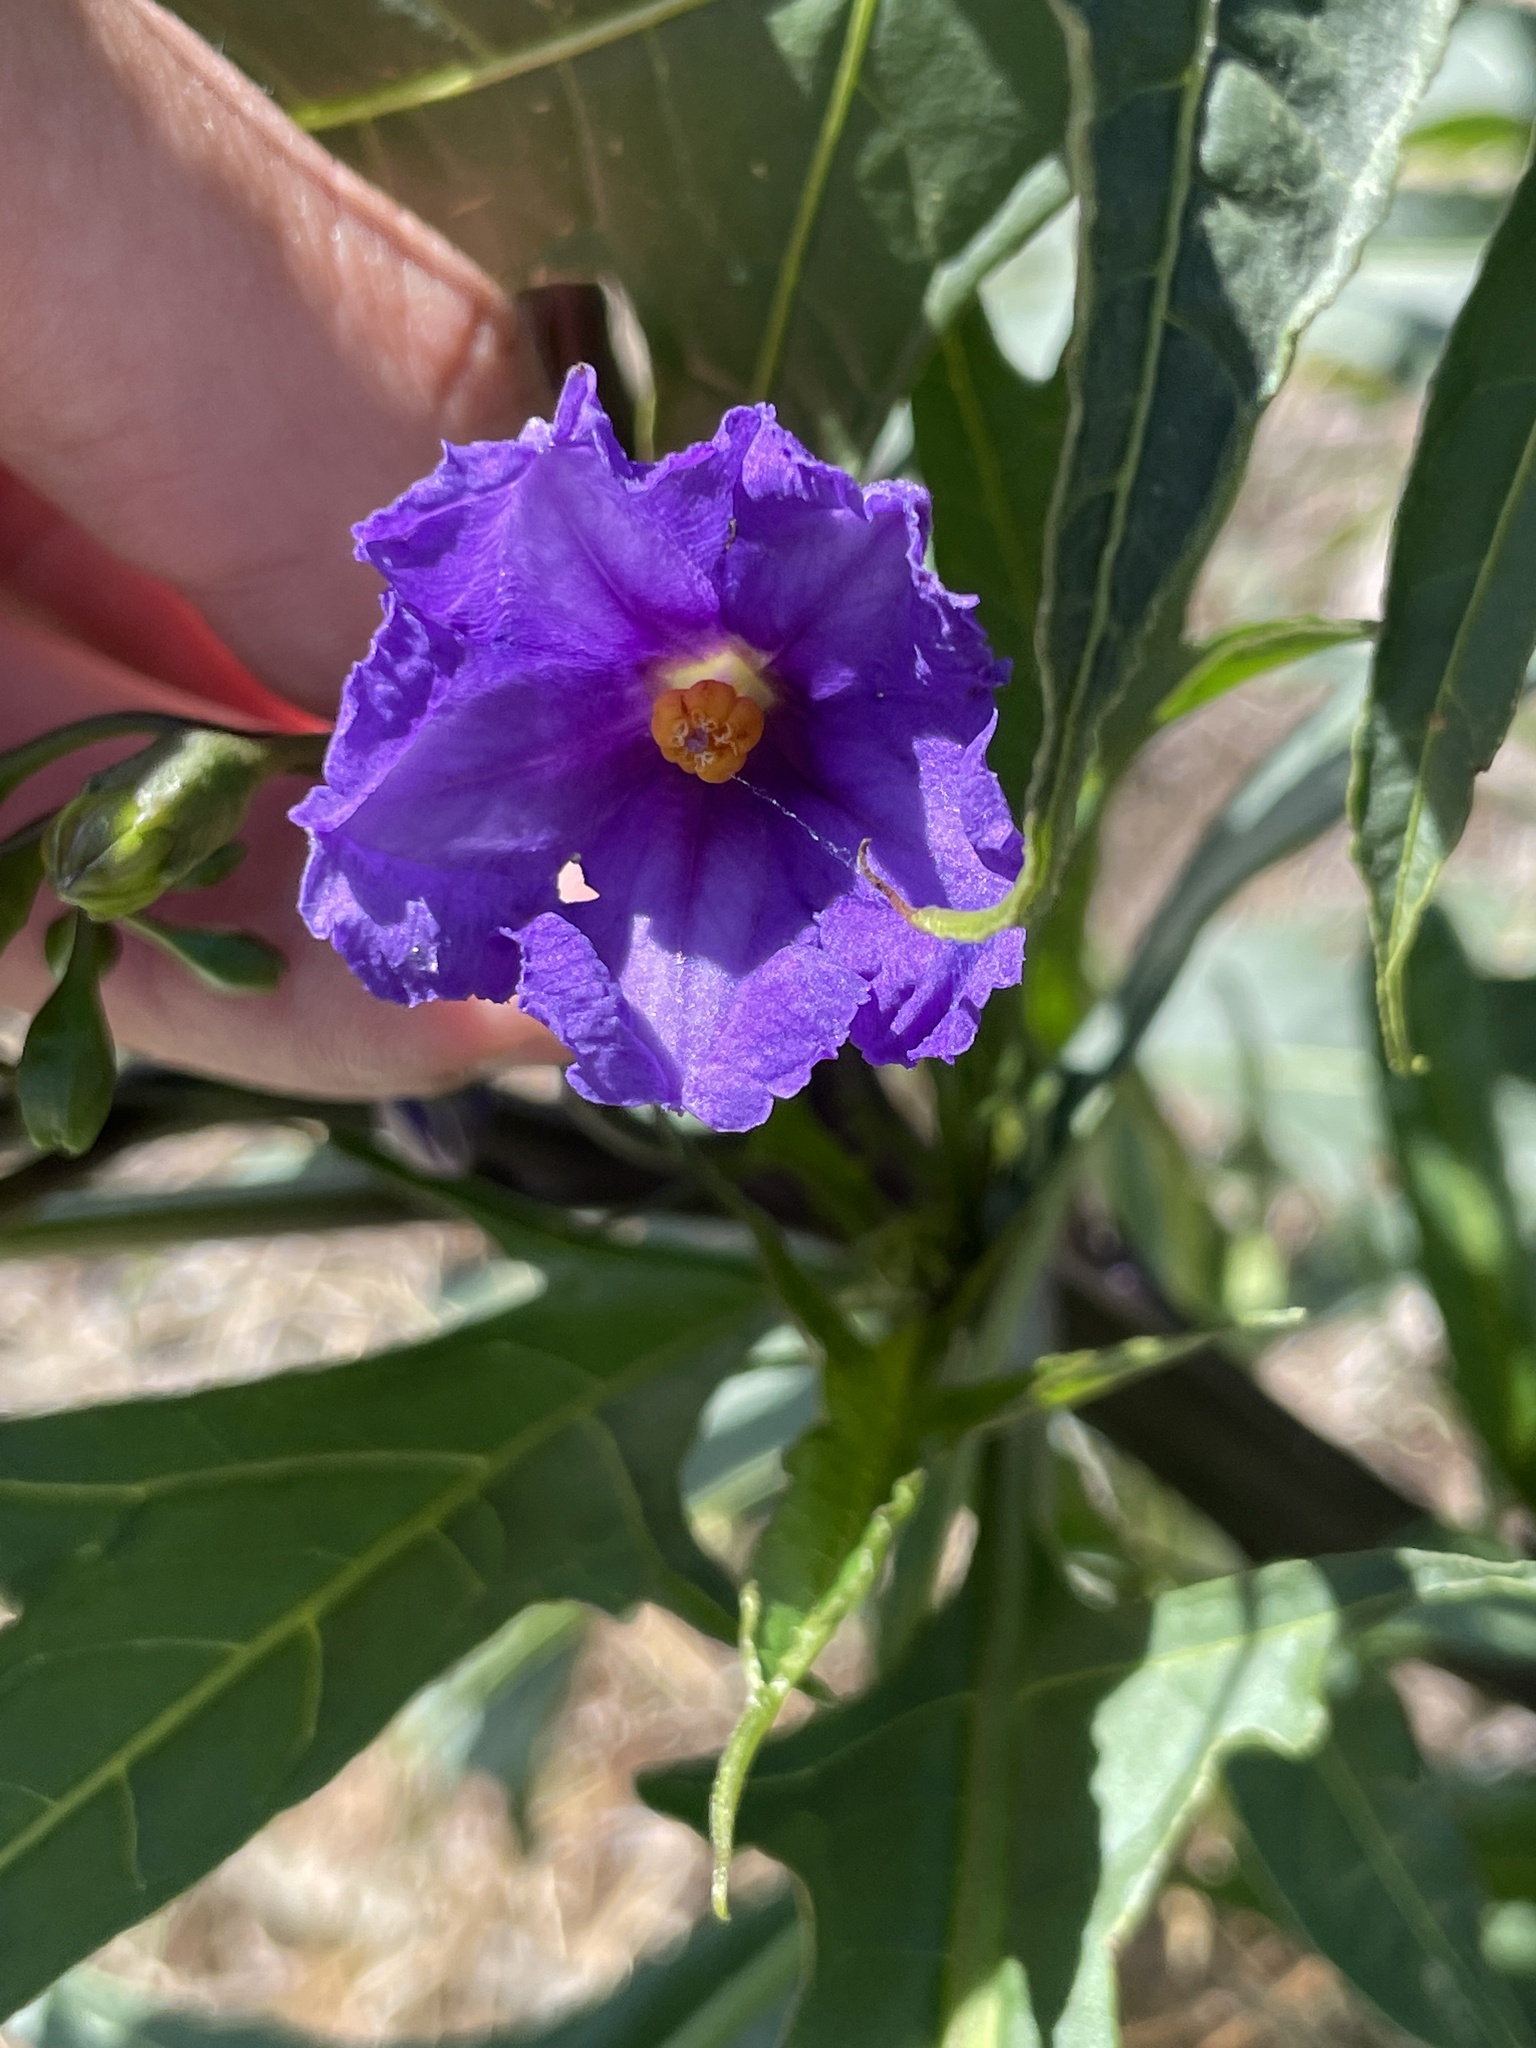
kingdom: Plantae
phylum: Tracheophyta
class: Magnoliopsida
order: Solanales
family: Solanaceae
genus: Solanum
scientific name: Solanum laciniatum
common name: Kangaroo-apple
